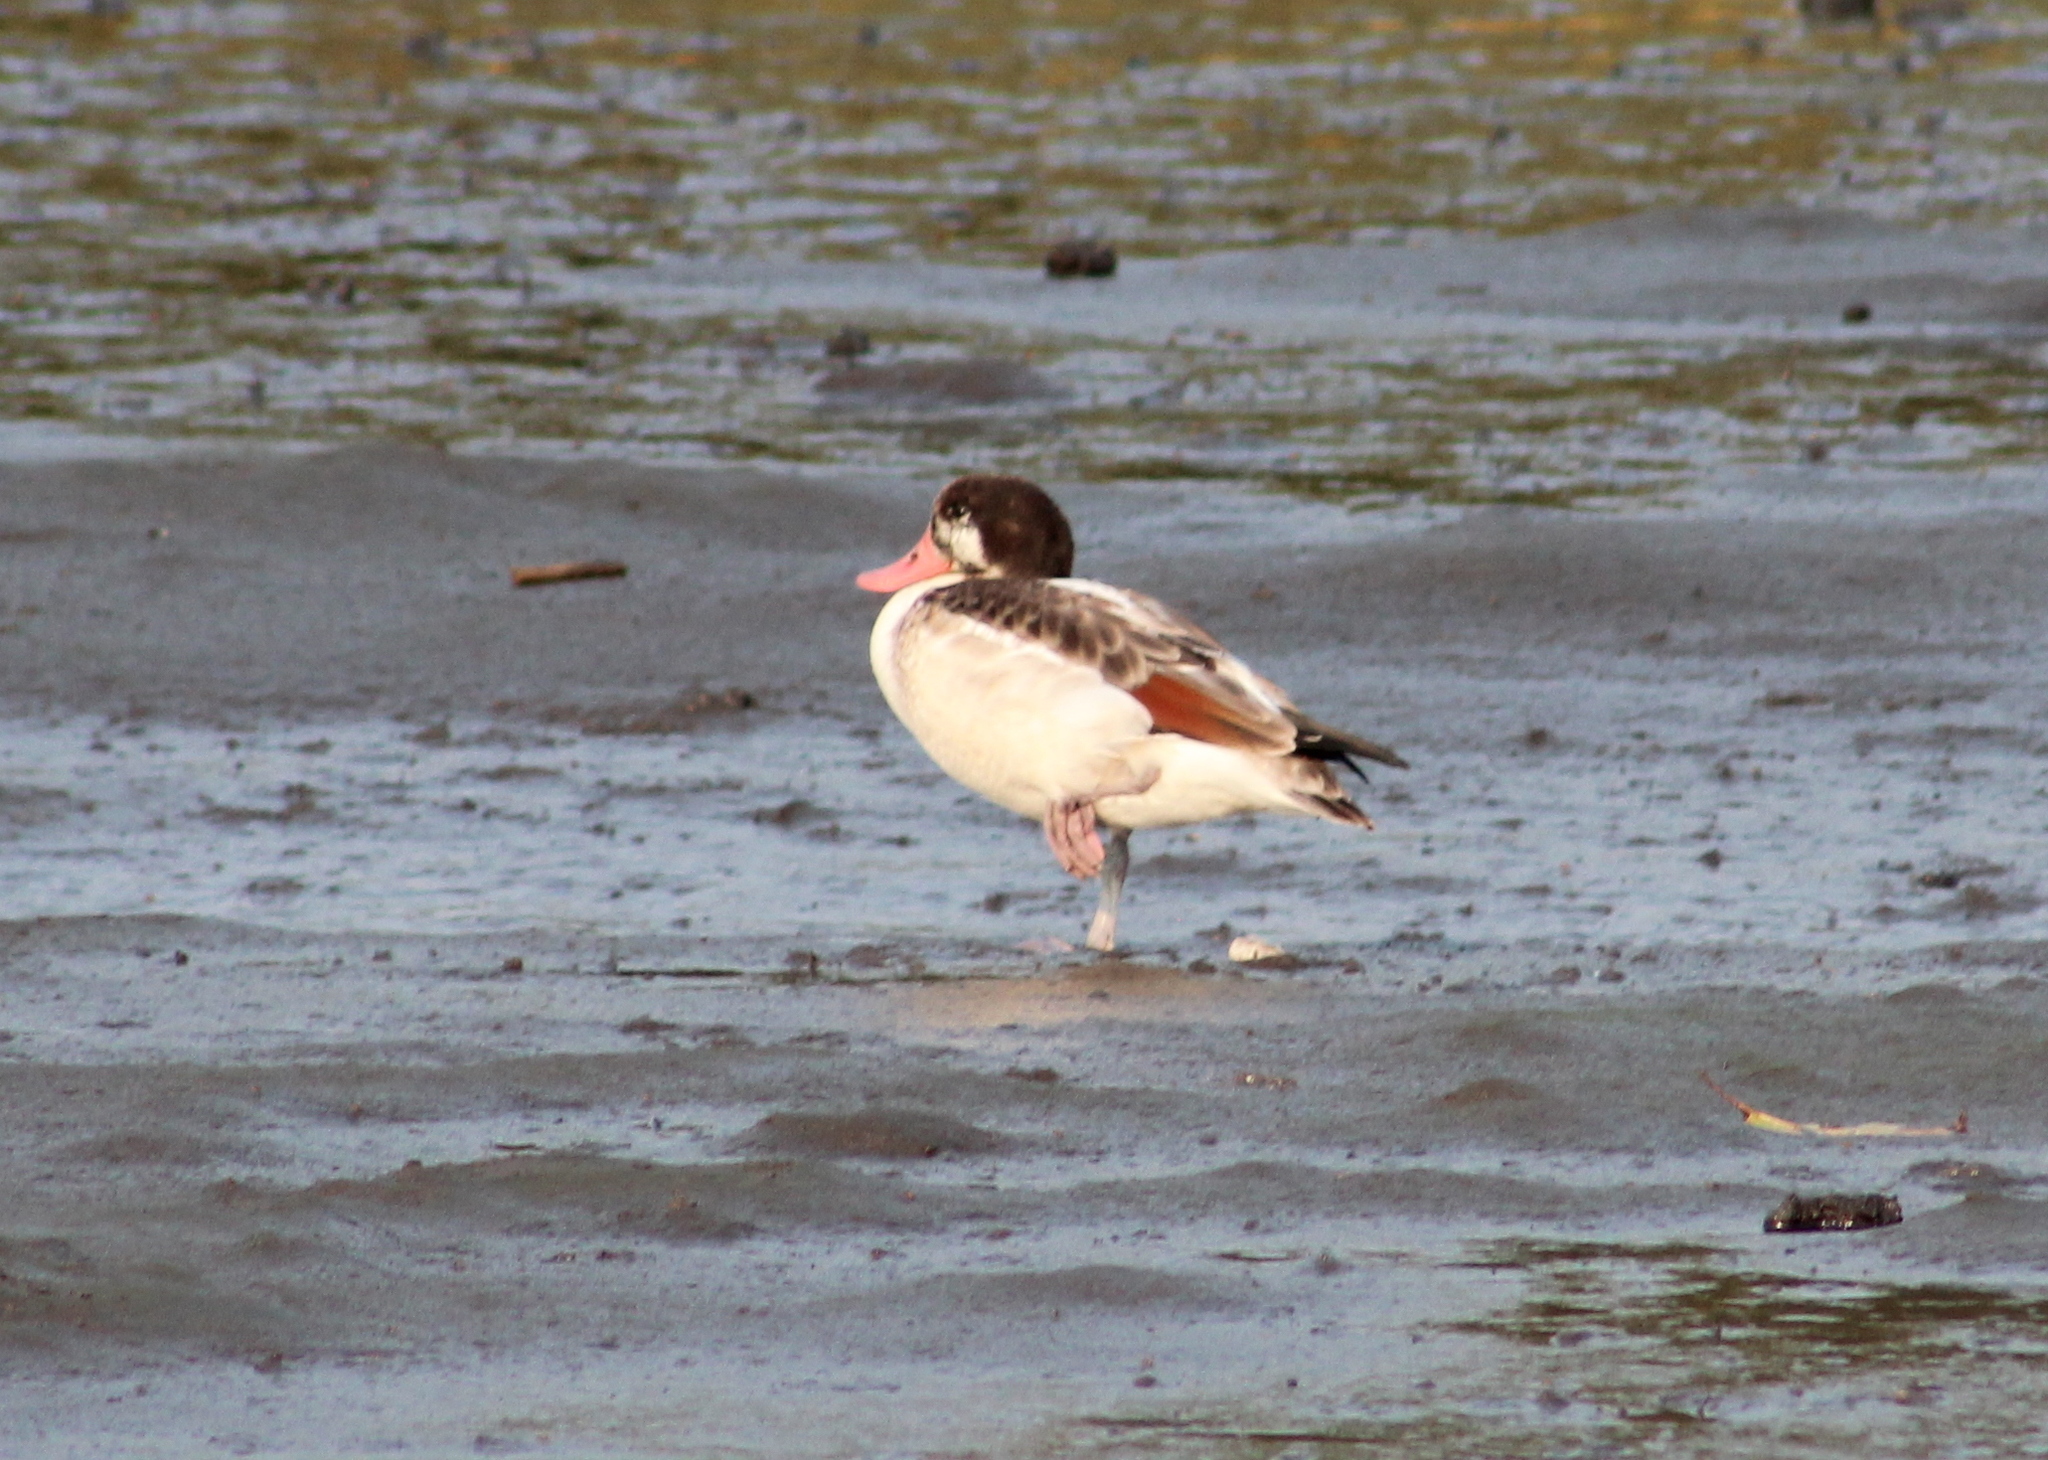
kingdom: Animalia
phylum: Chordata
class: Aves
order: Anseriformes
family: Anatidae
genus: Tadorna
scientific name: Tadorna tadorna
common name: Common shelduck
